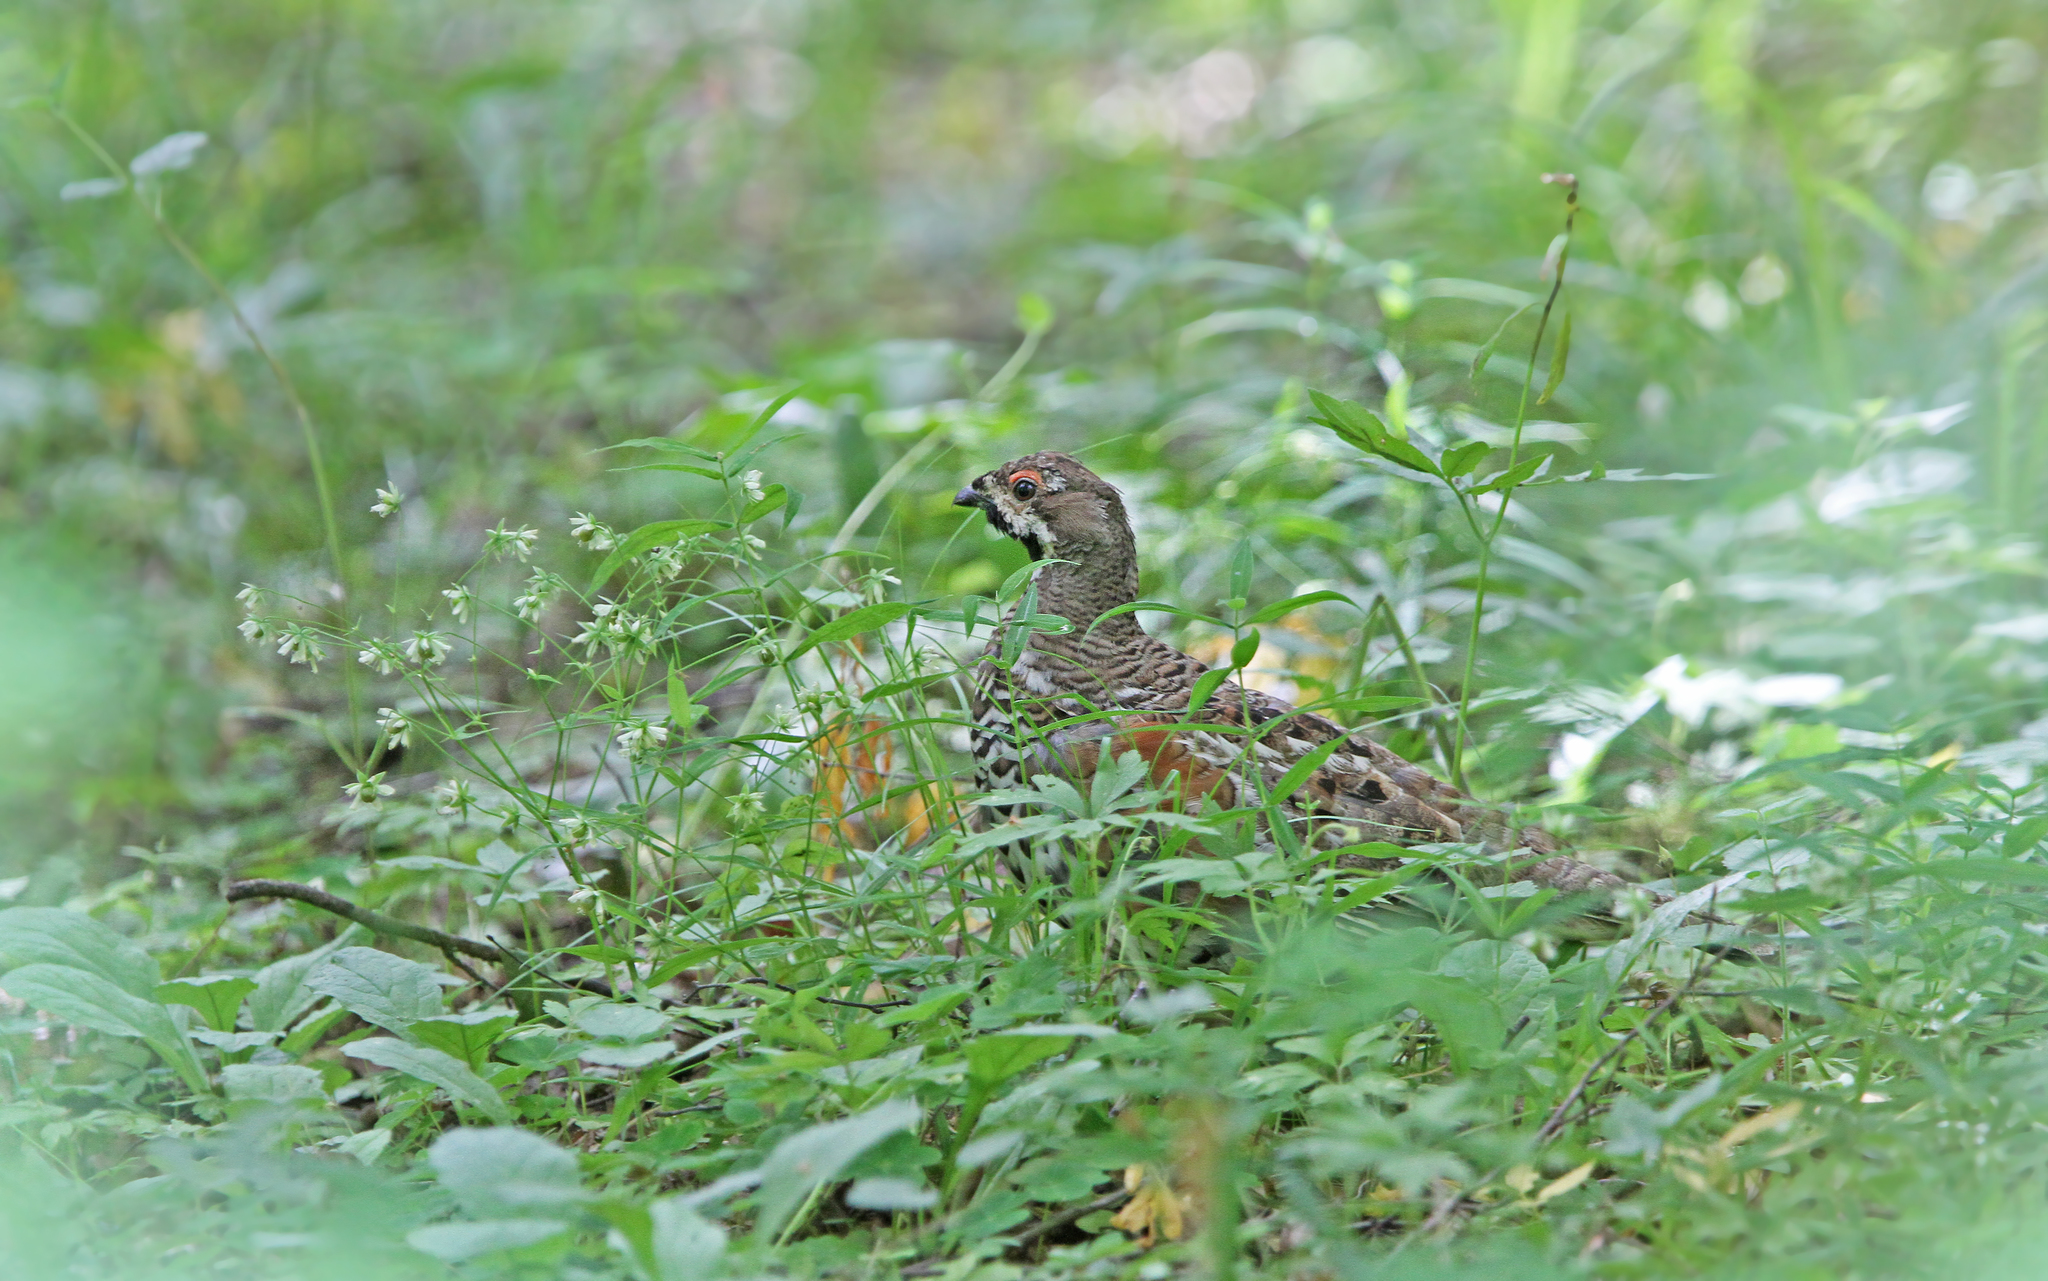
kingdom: Animalia
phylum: Chordata
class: Aves
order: Galliformes
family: Phasianidae
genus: Tetrao
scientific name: Tetrao urogallus
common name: Western capercaillie
